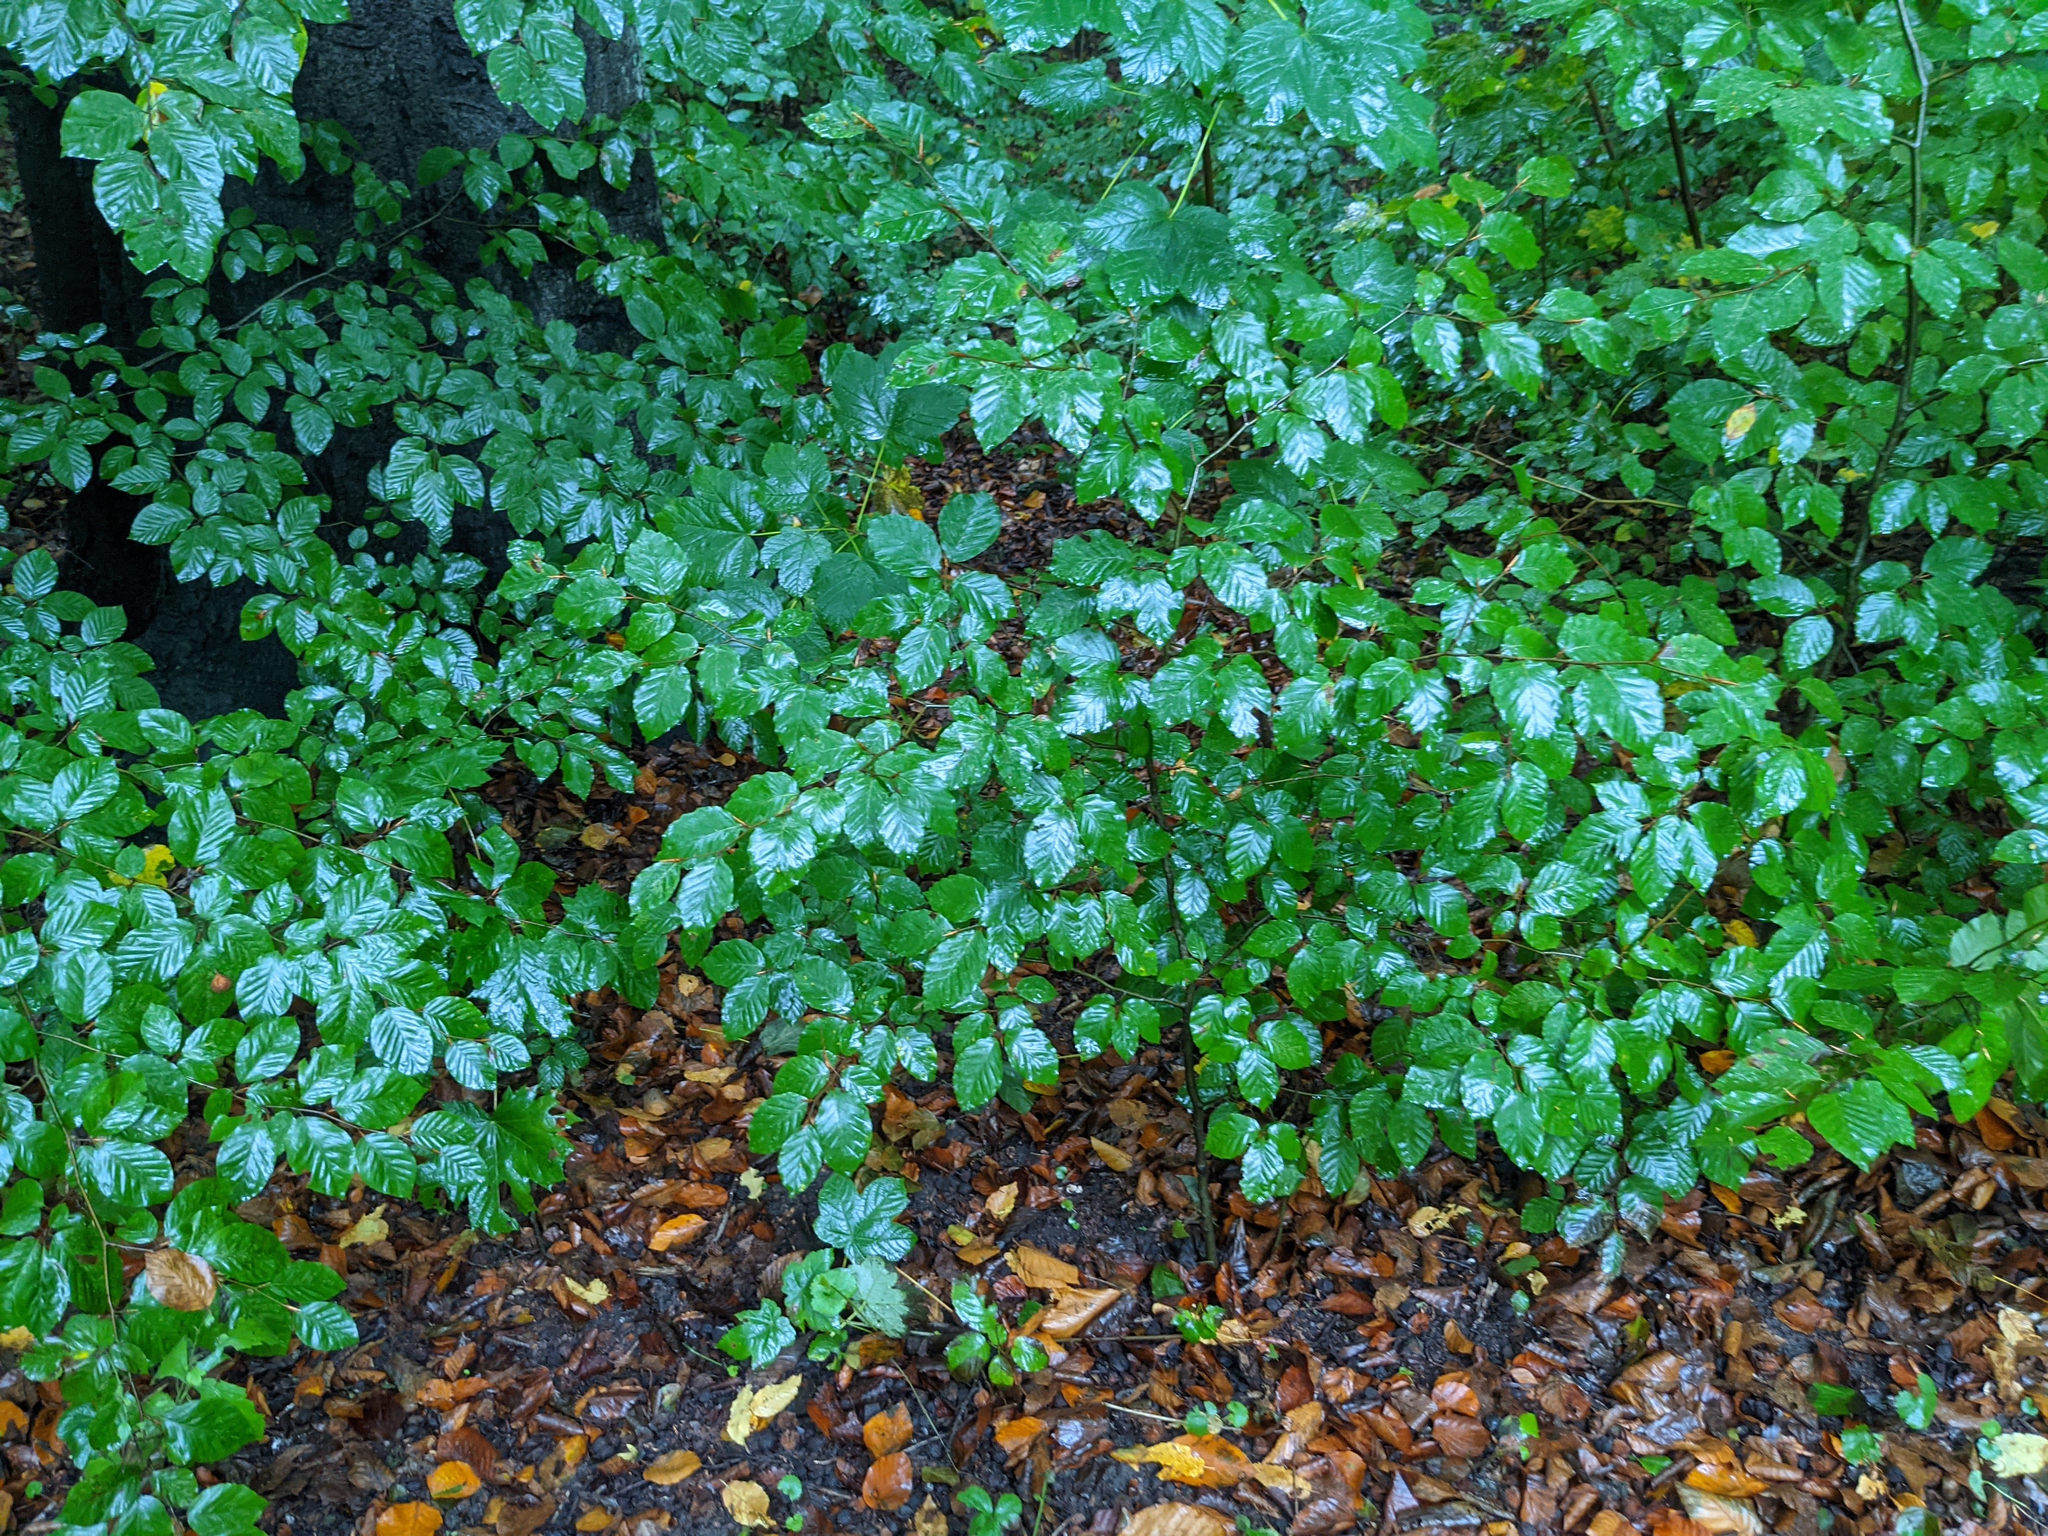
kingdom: Plantae
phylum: Tracheophyta
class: Magnoliopsida
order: Fagales
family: Fagaceae
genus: Fagus
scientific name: Fagus sylvatica
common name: Beech
